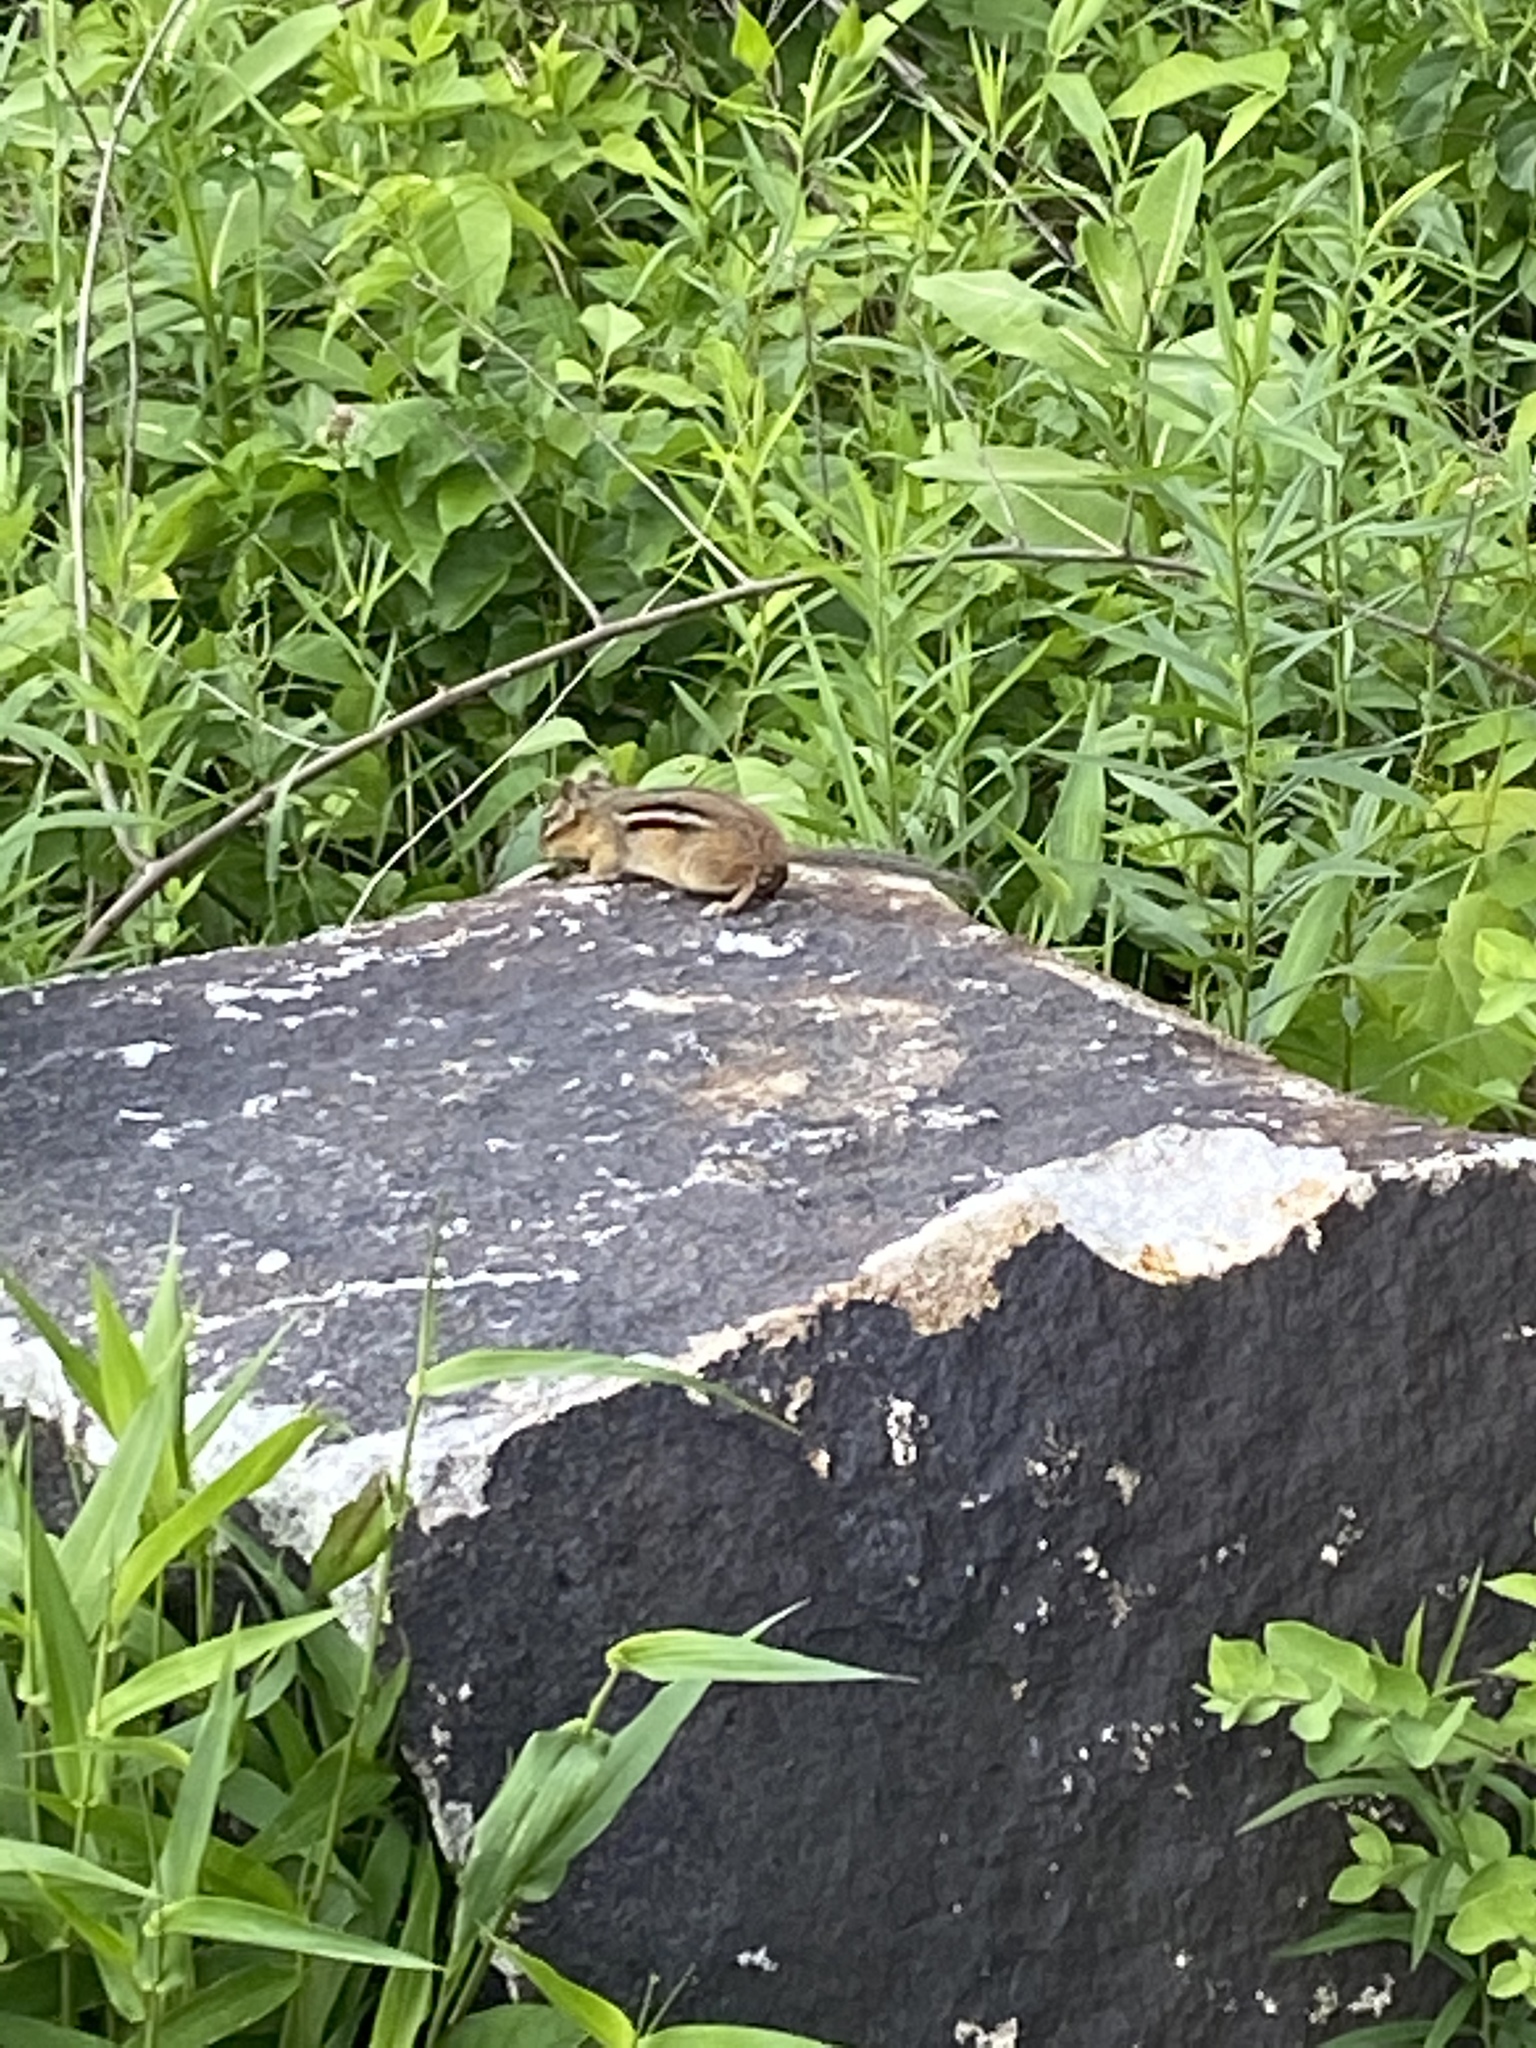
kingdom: Animalia
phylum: Chordata
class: Mammalia
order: Rodentia
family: Sciuridae
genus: Tamias
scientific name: Tamias striatus
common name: Eastern chipmunk
